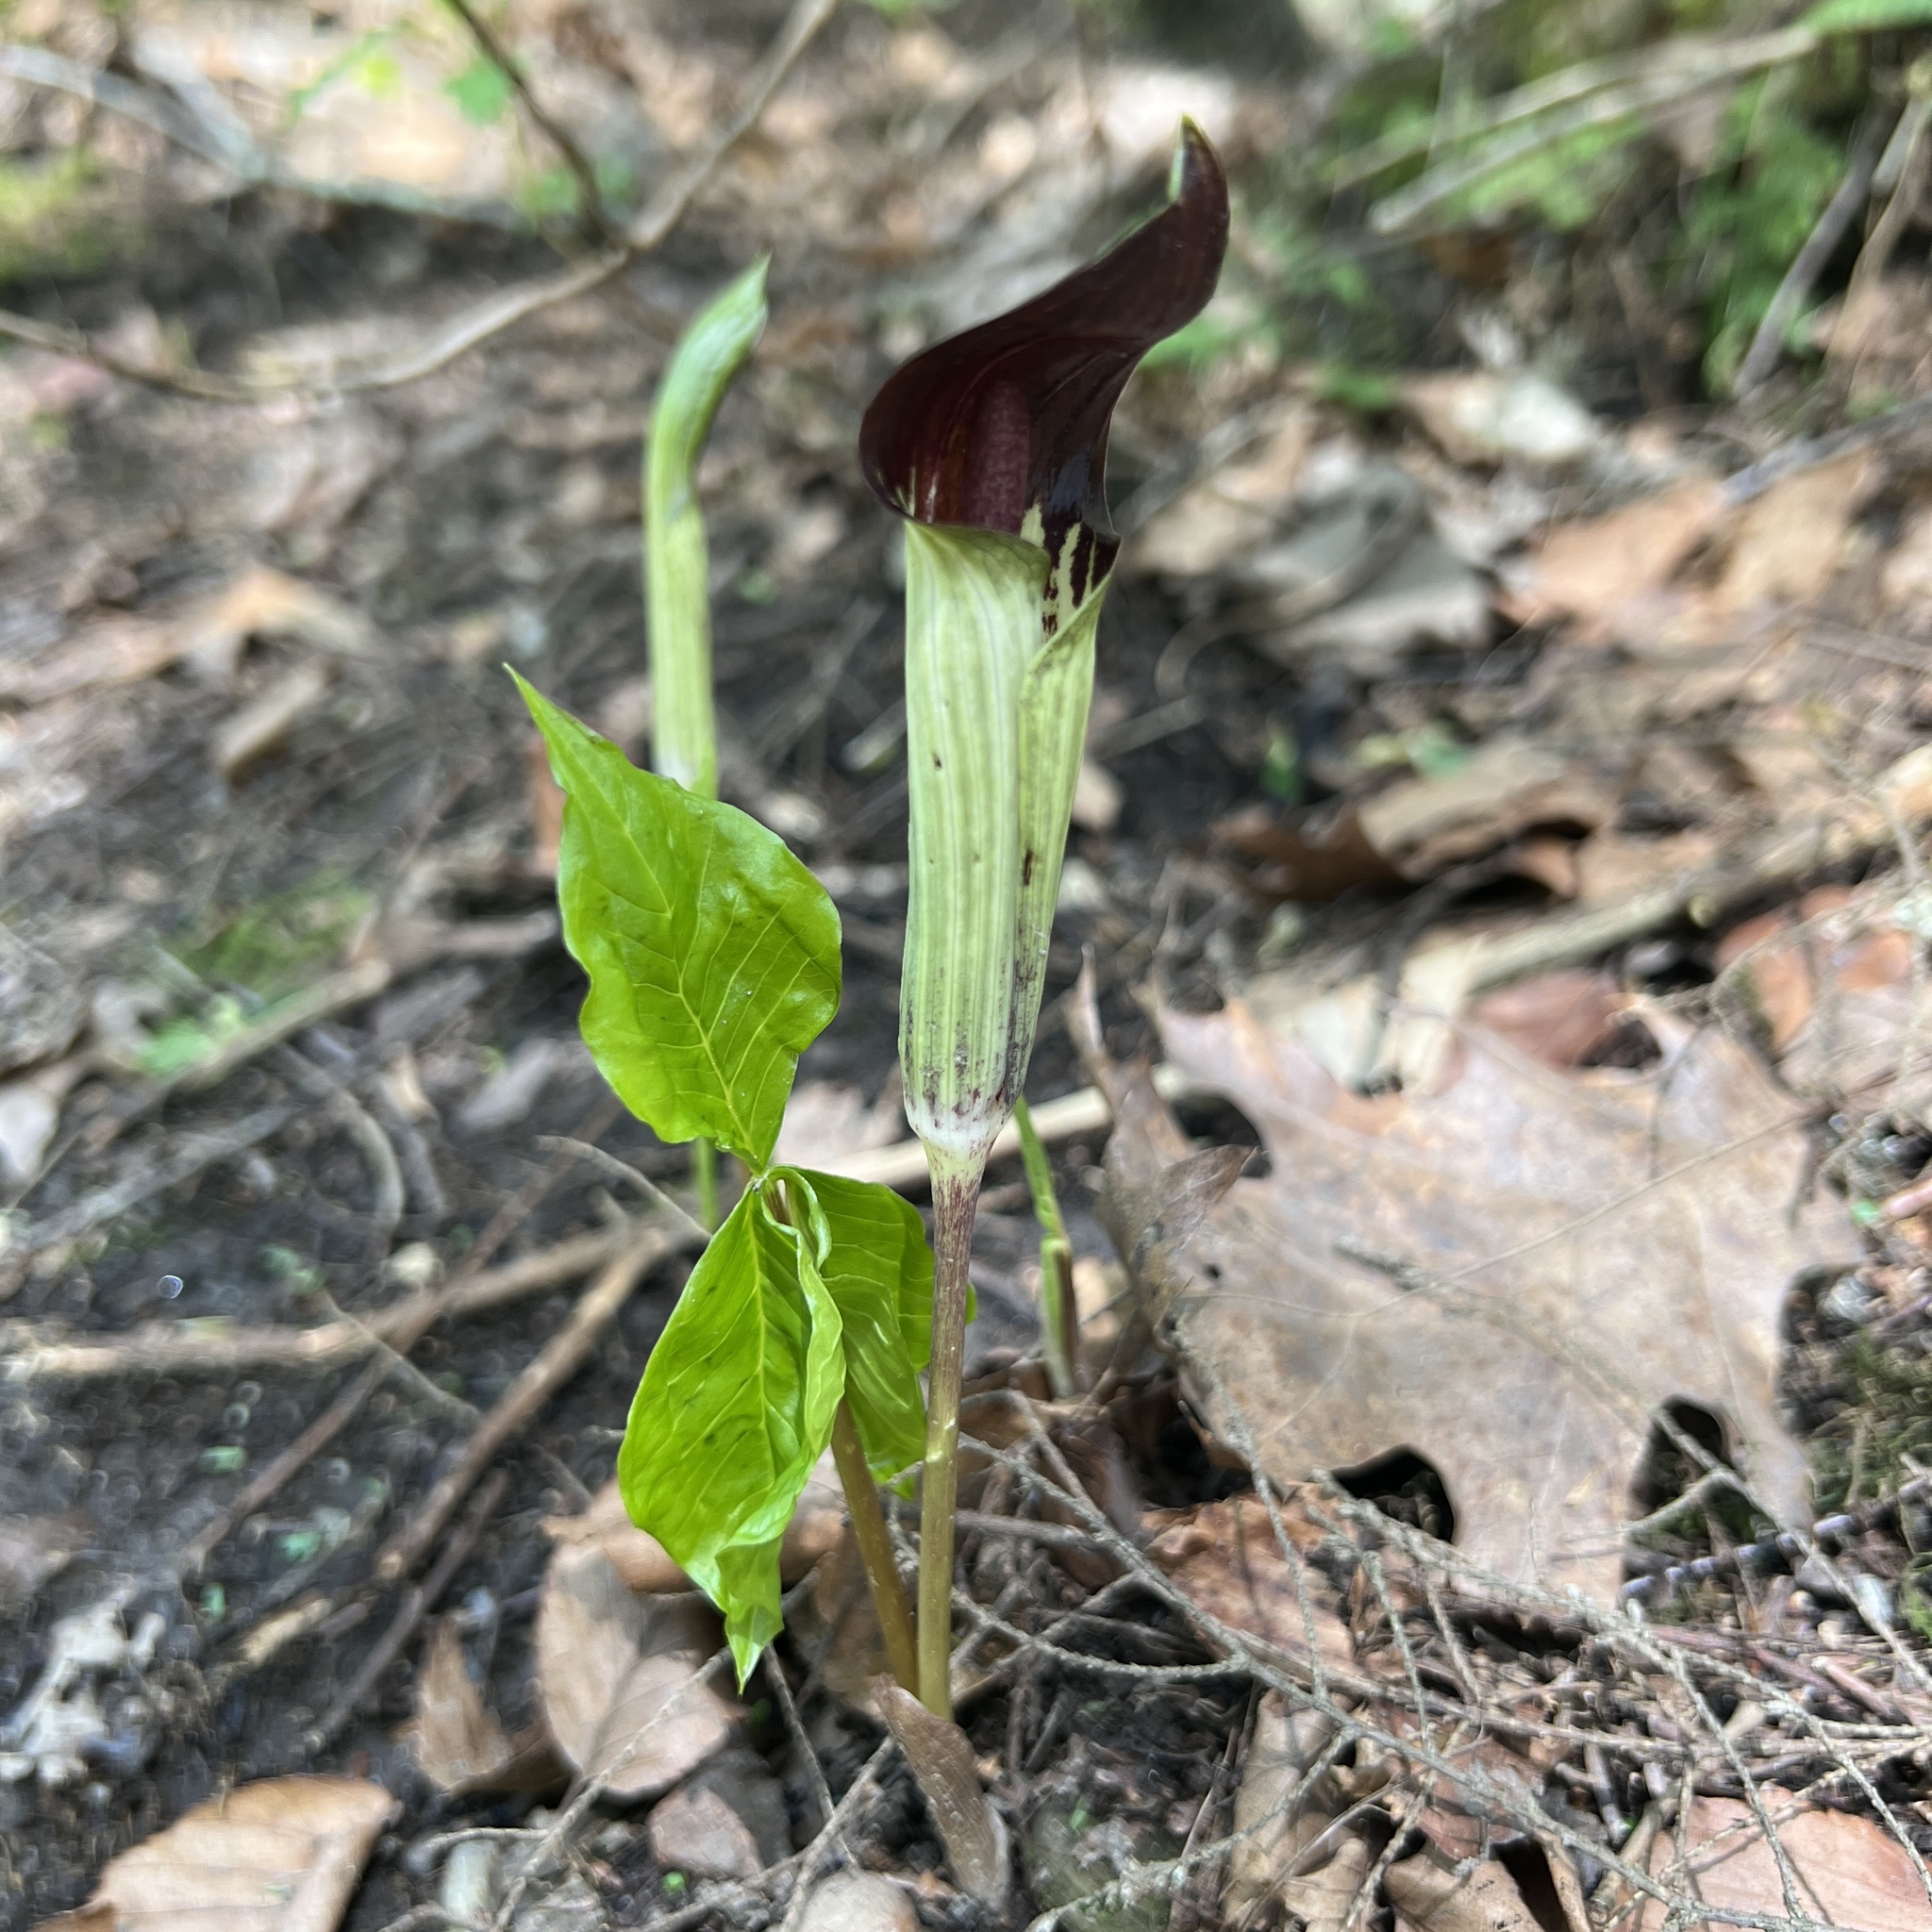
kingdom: Plantae
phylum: Tracheophyta
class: Liliopsida
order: Alismatales
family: Araceae
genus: Arisaema
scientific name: Arisaema triphyllum
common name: Jack-in-the-pulpit
